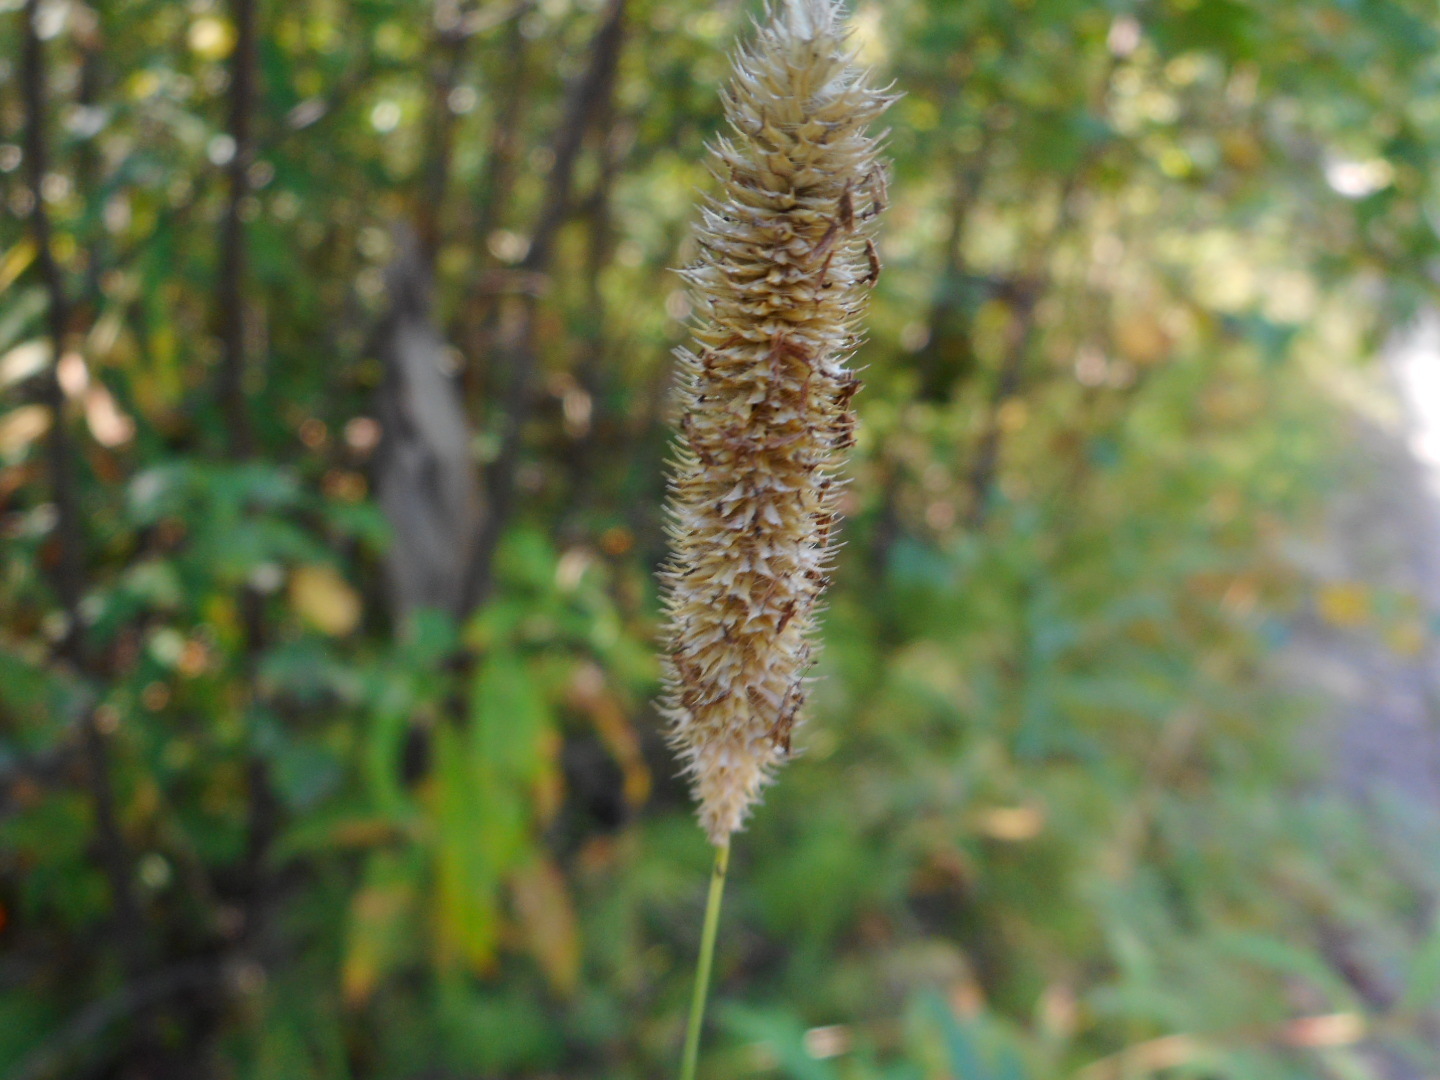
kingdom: Plantae
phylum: Tracheophyta
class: Liliopsida
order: Poales
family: Poaceae
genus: Phleum
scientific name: Phleum pratense
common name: Timothy grass
